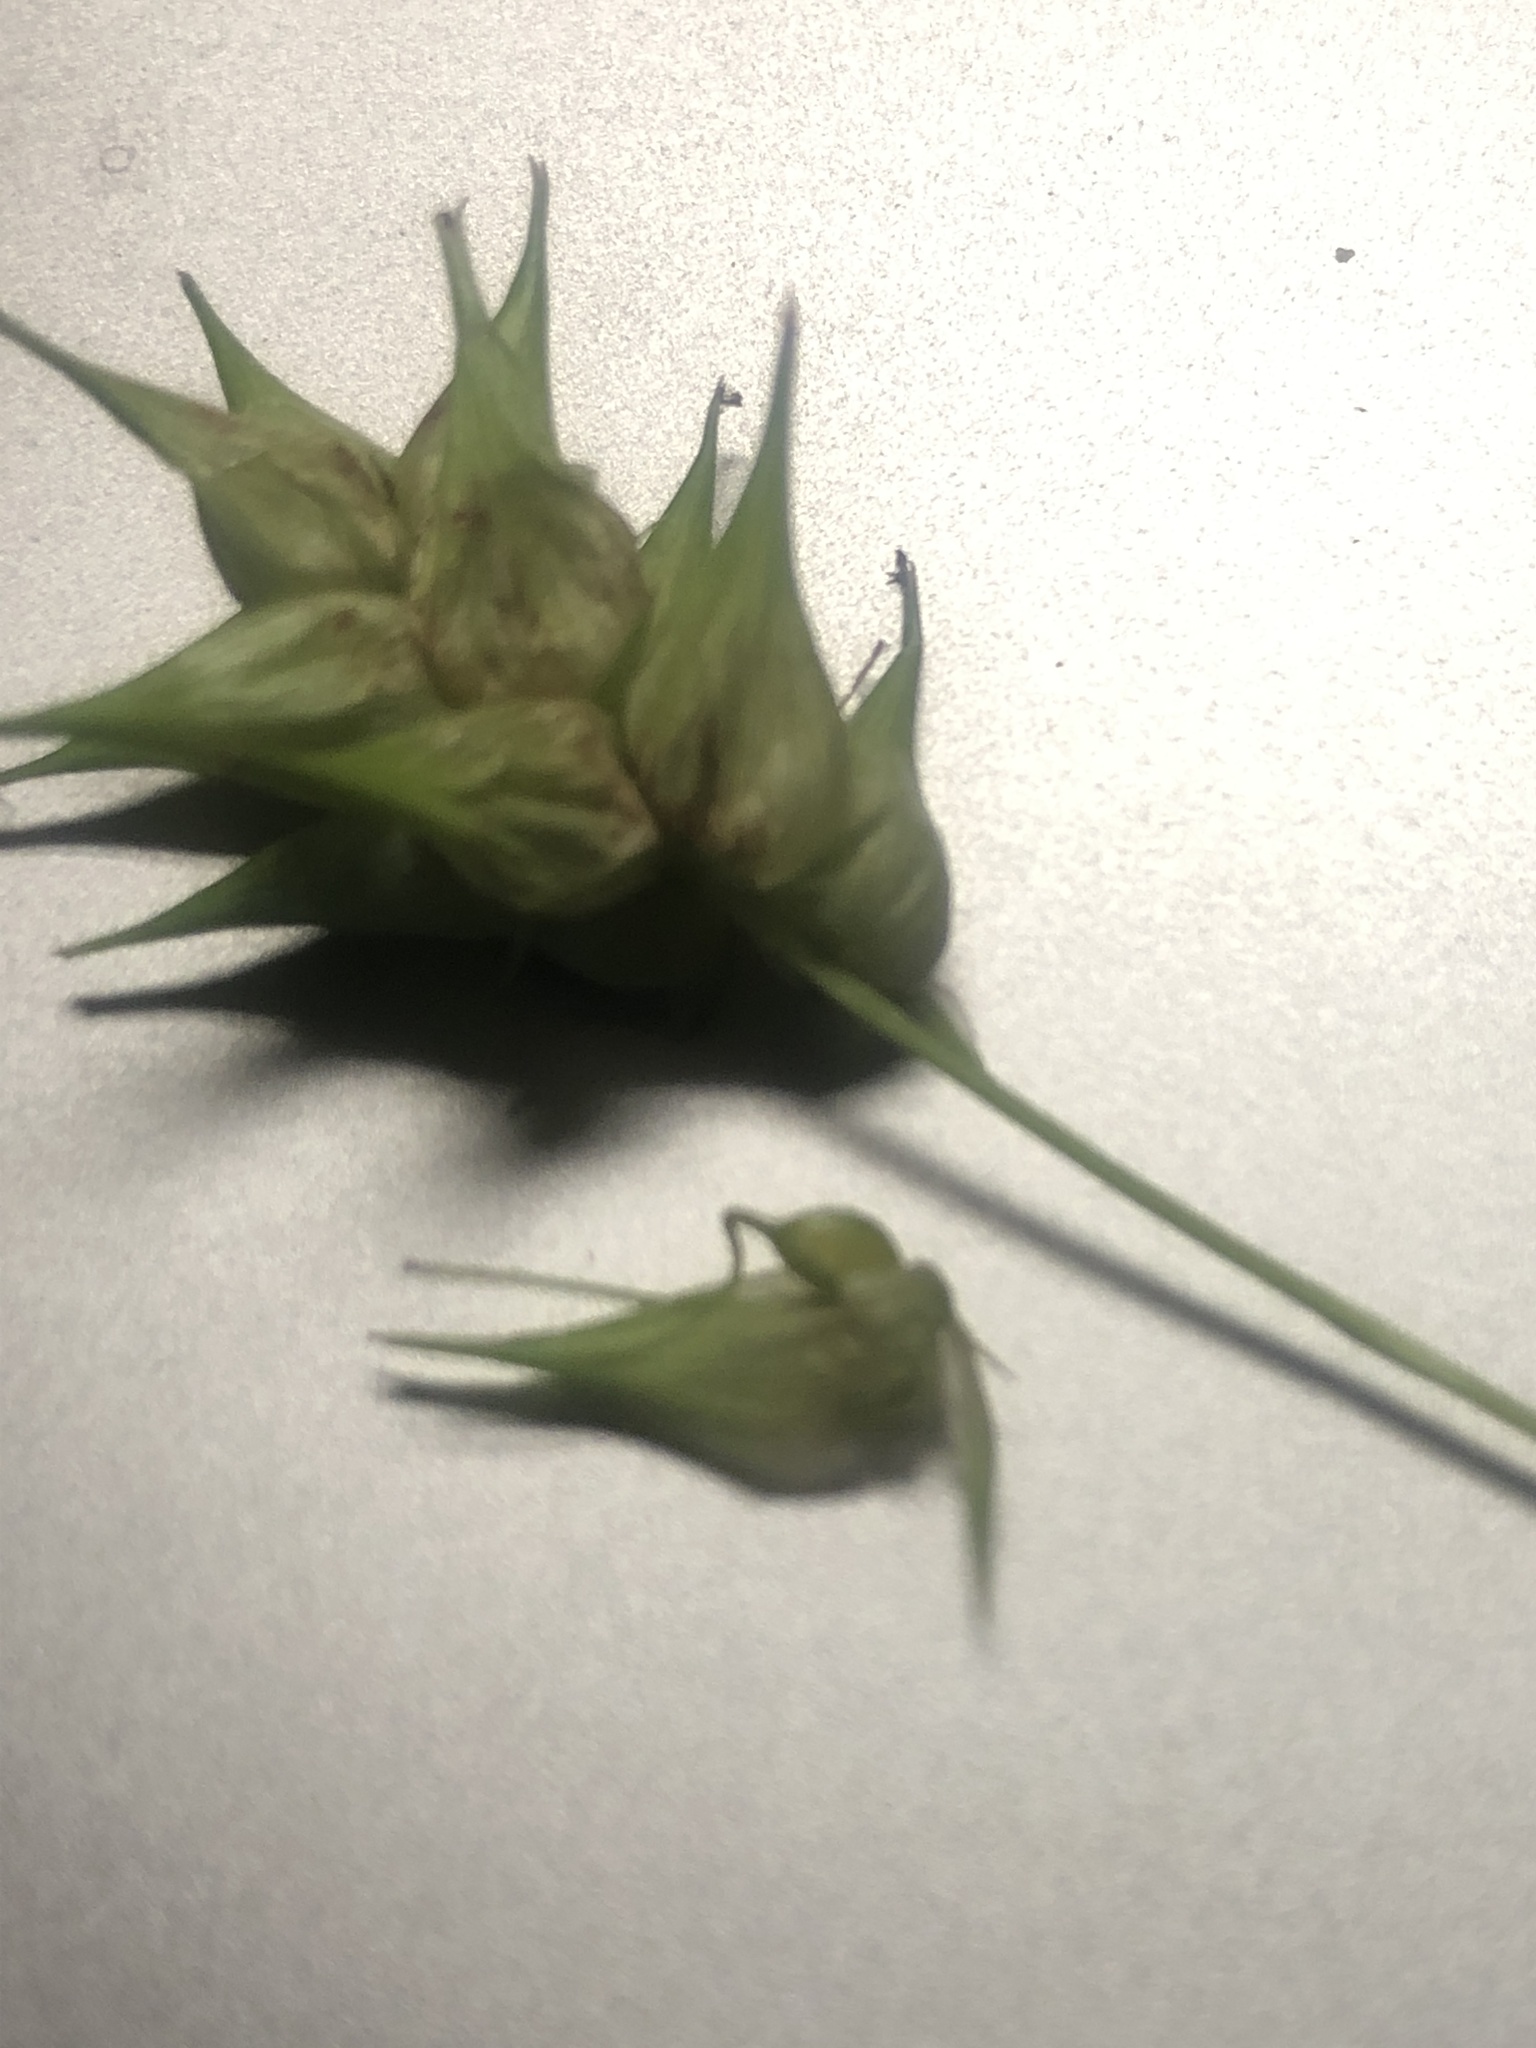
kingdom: Plantae
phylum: Tracheophyta
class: Liliopsida
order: Poales
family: Cyperaceae
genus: Carex
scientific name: Carex louisianica
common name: Louisiana sedge
